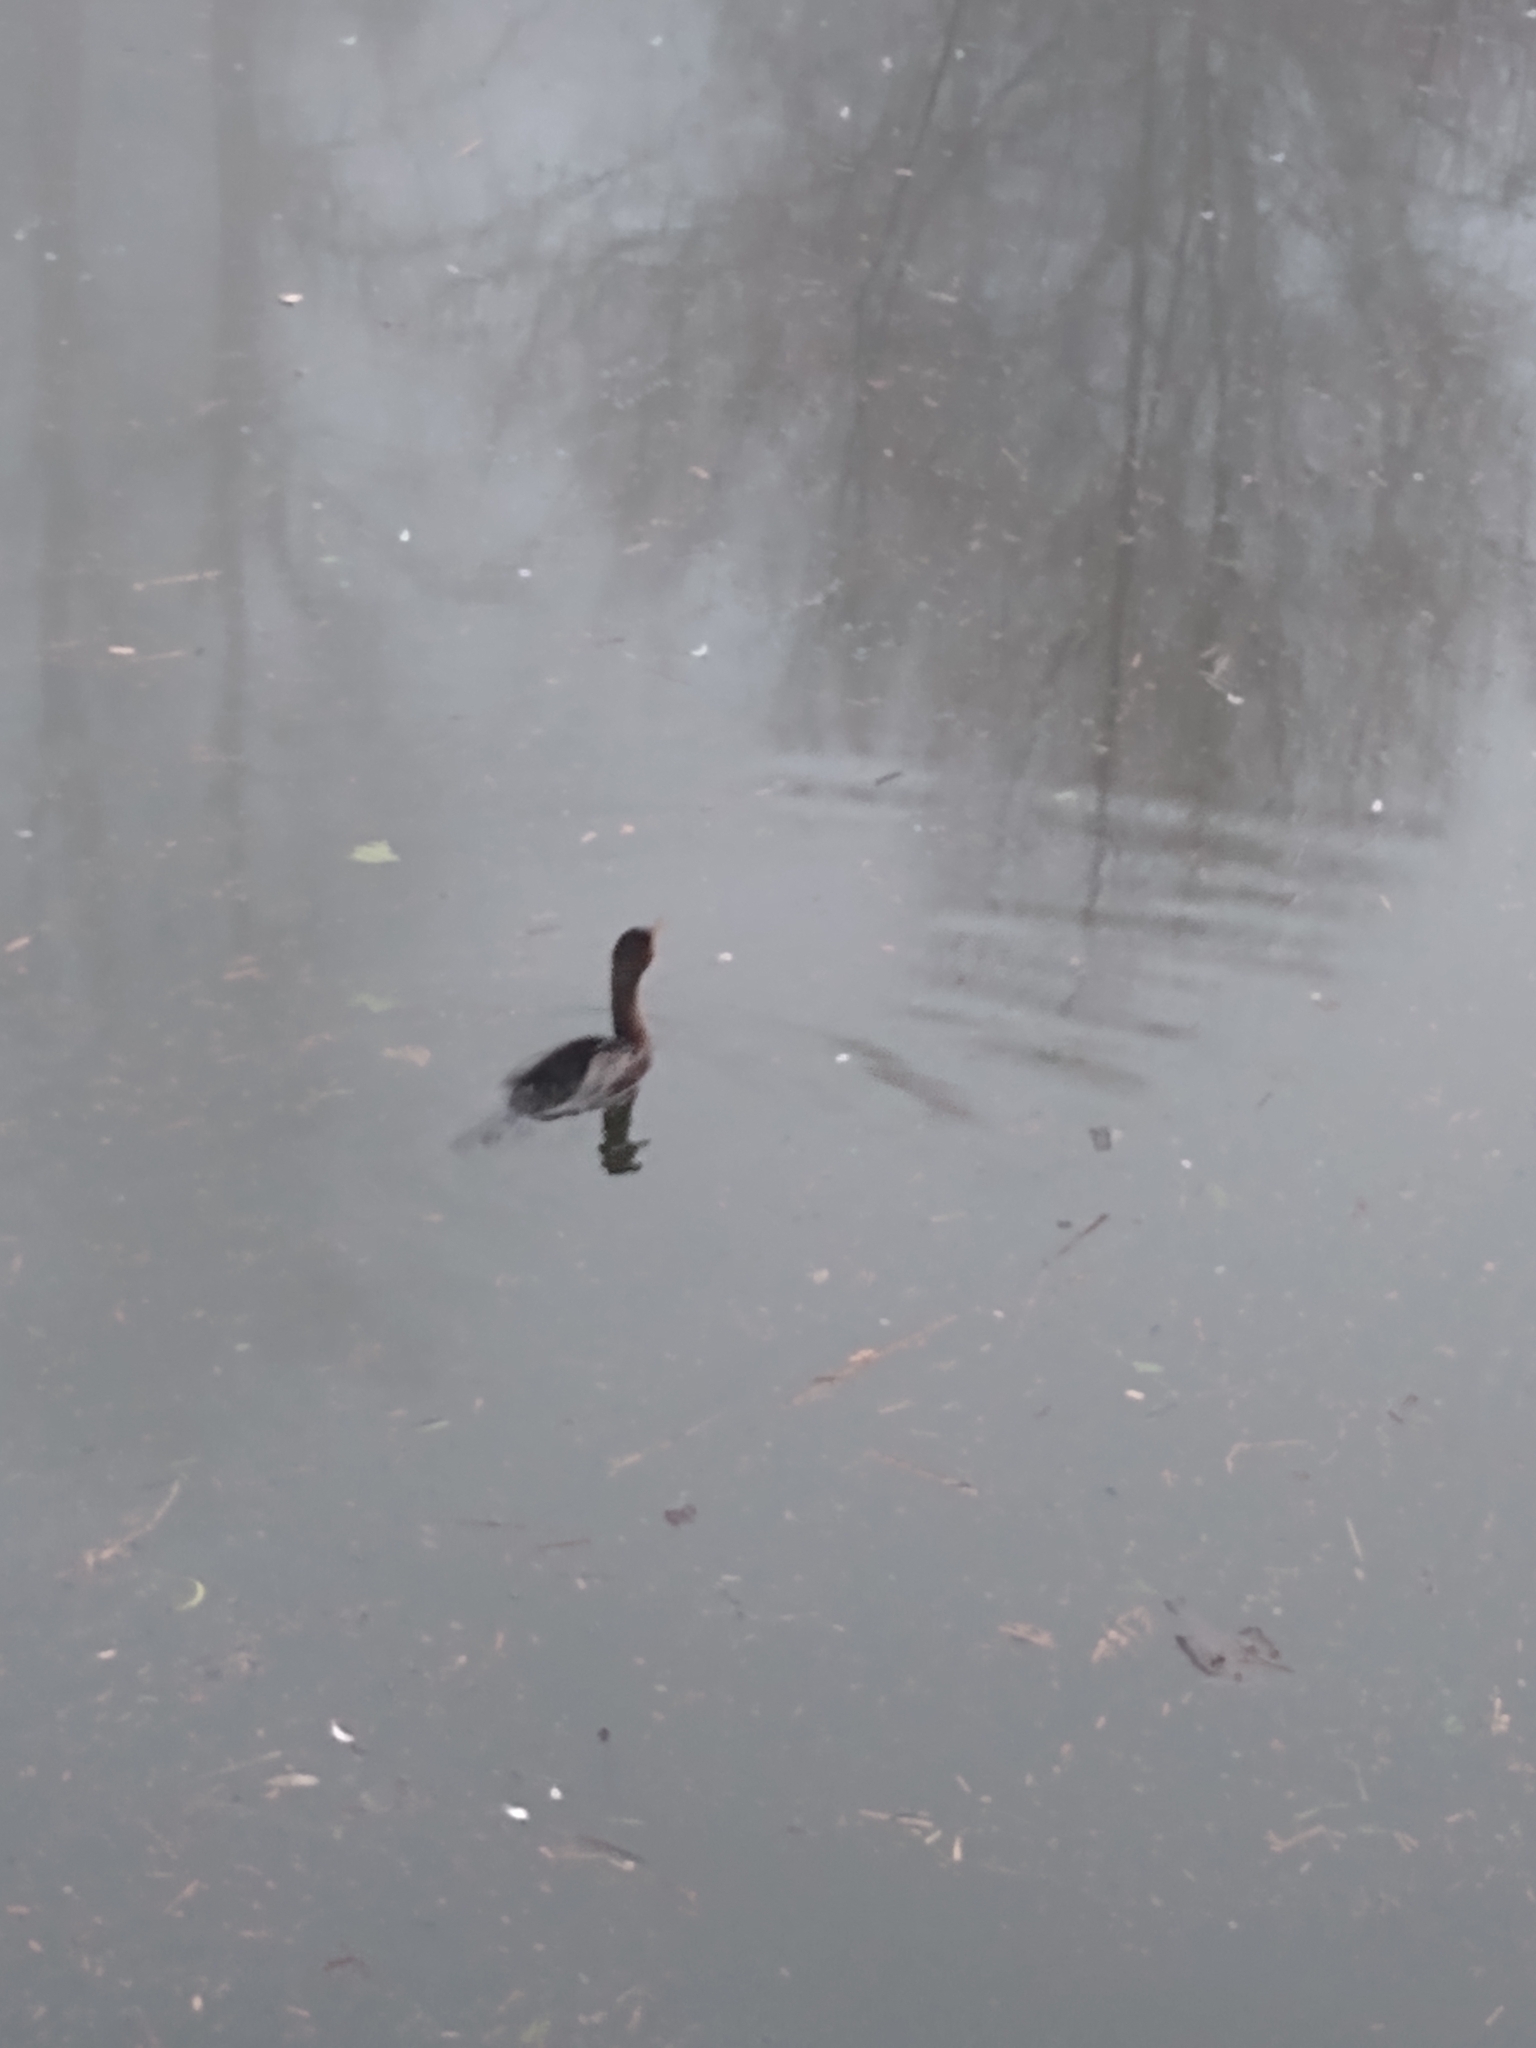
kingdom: Animalia
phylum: Chordata
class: Aves
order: Suliformes
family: Phalacrocoracidae
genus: Phalacrocorax
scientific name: Phalacrocorax auritus
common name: Double-crested cormorant
